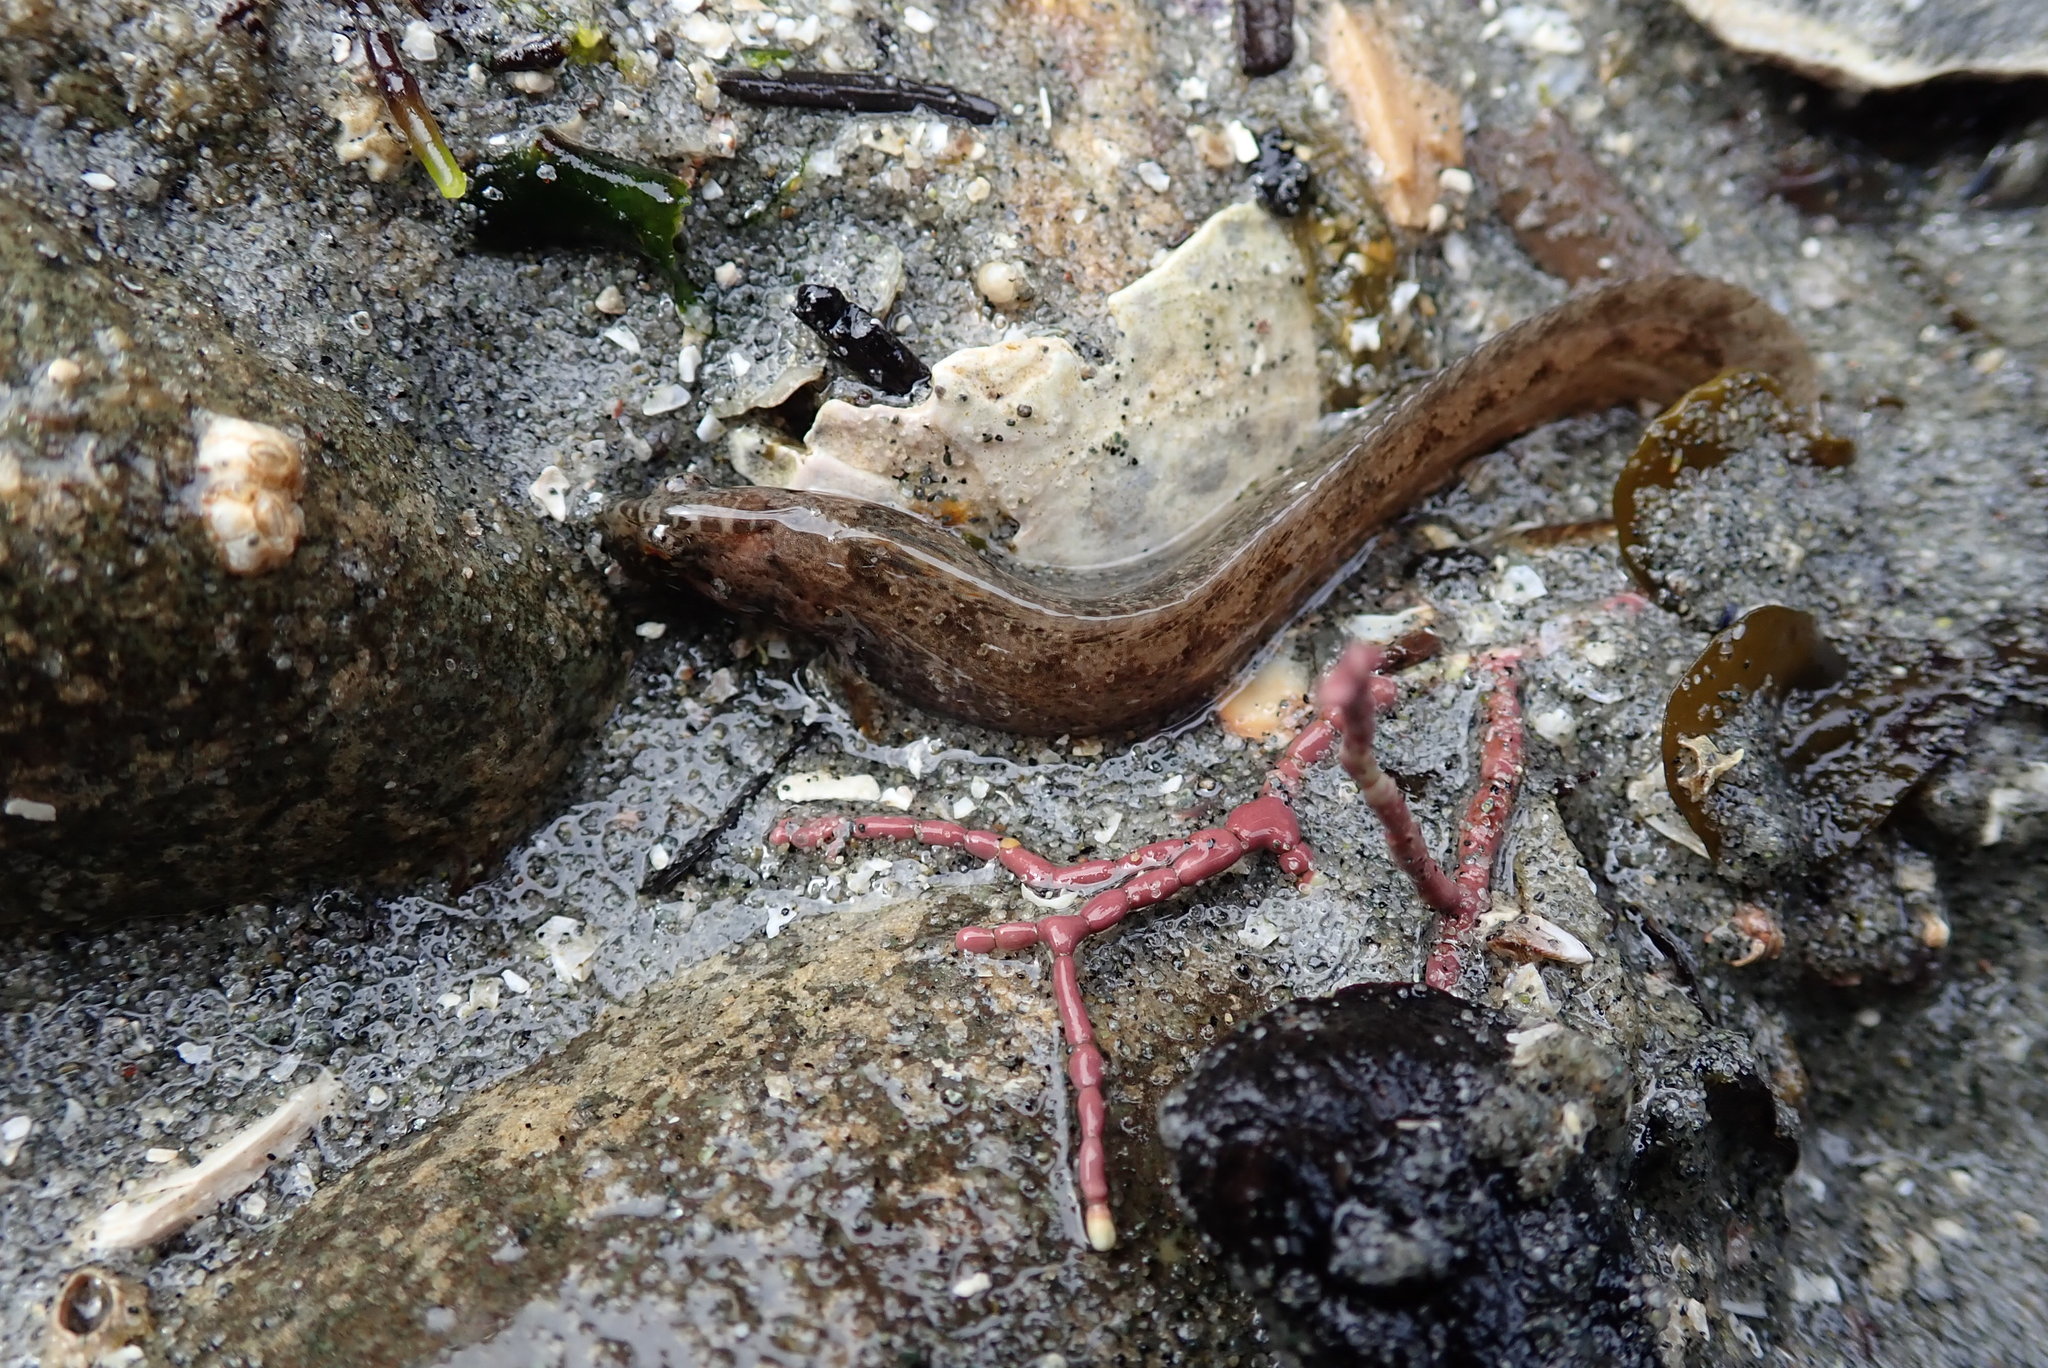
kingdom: Animalia
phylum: Chordata
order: Perciformes
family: Stichaeidae
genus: Anoplarchus
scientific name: Anoplarchus purpurescens
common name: High cockscomb
